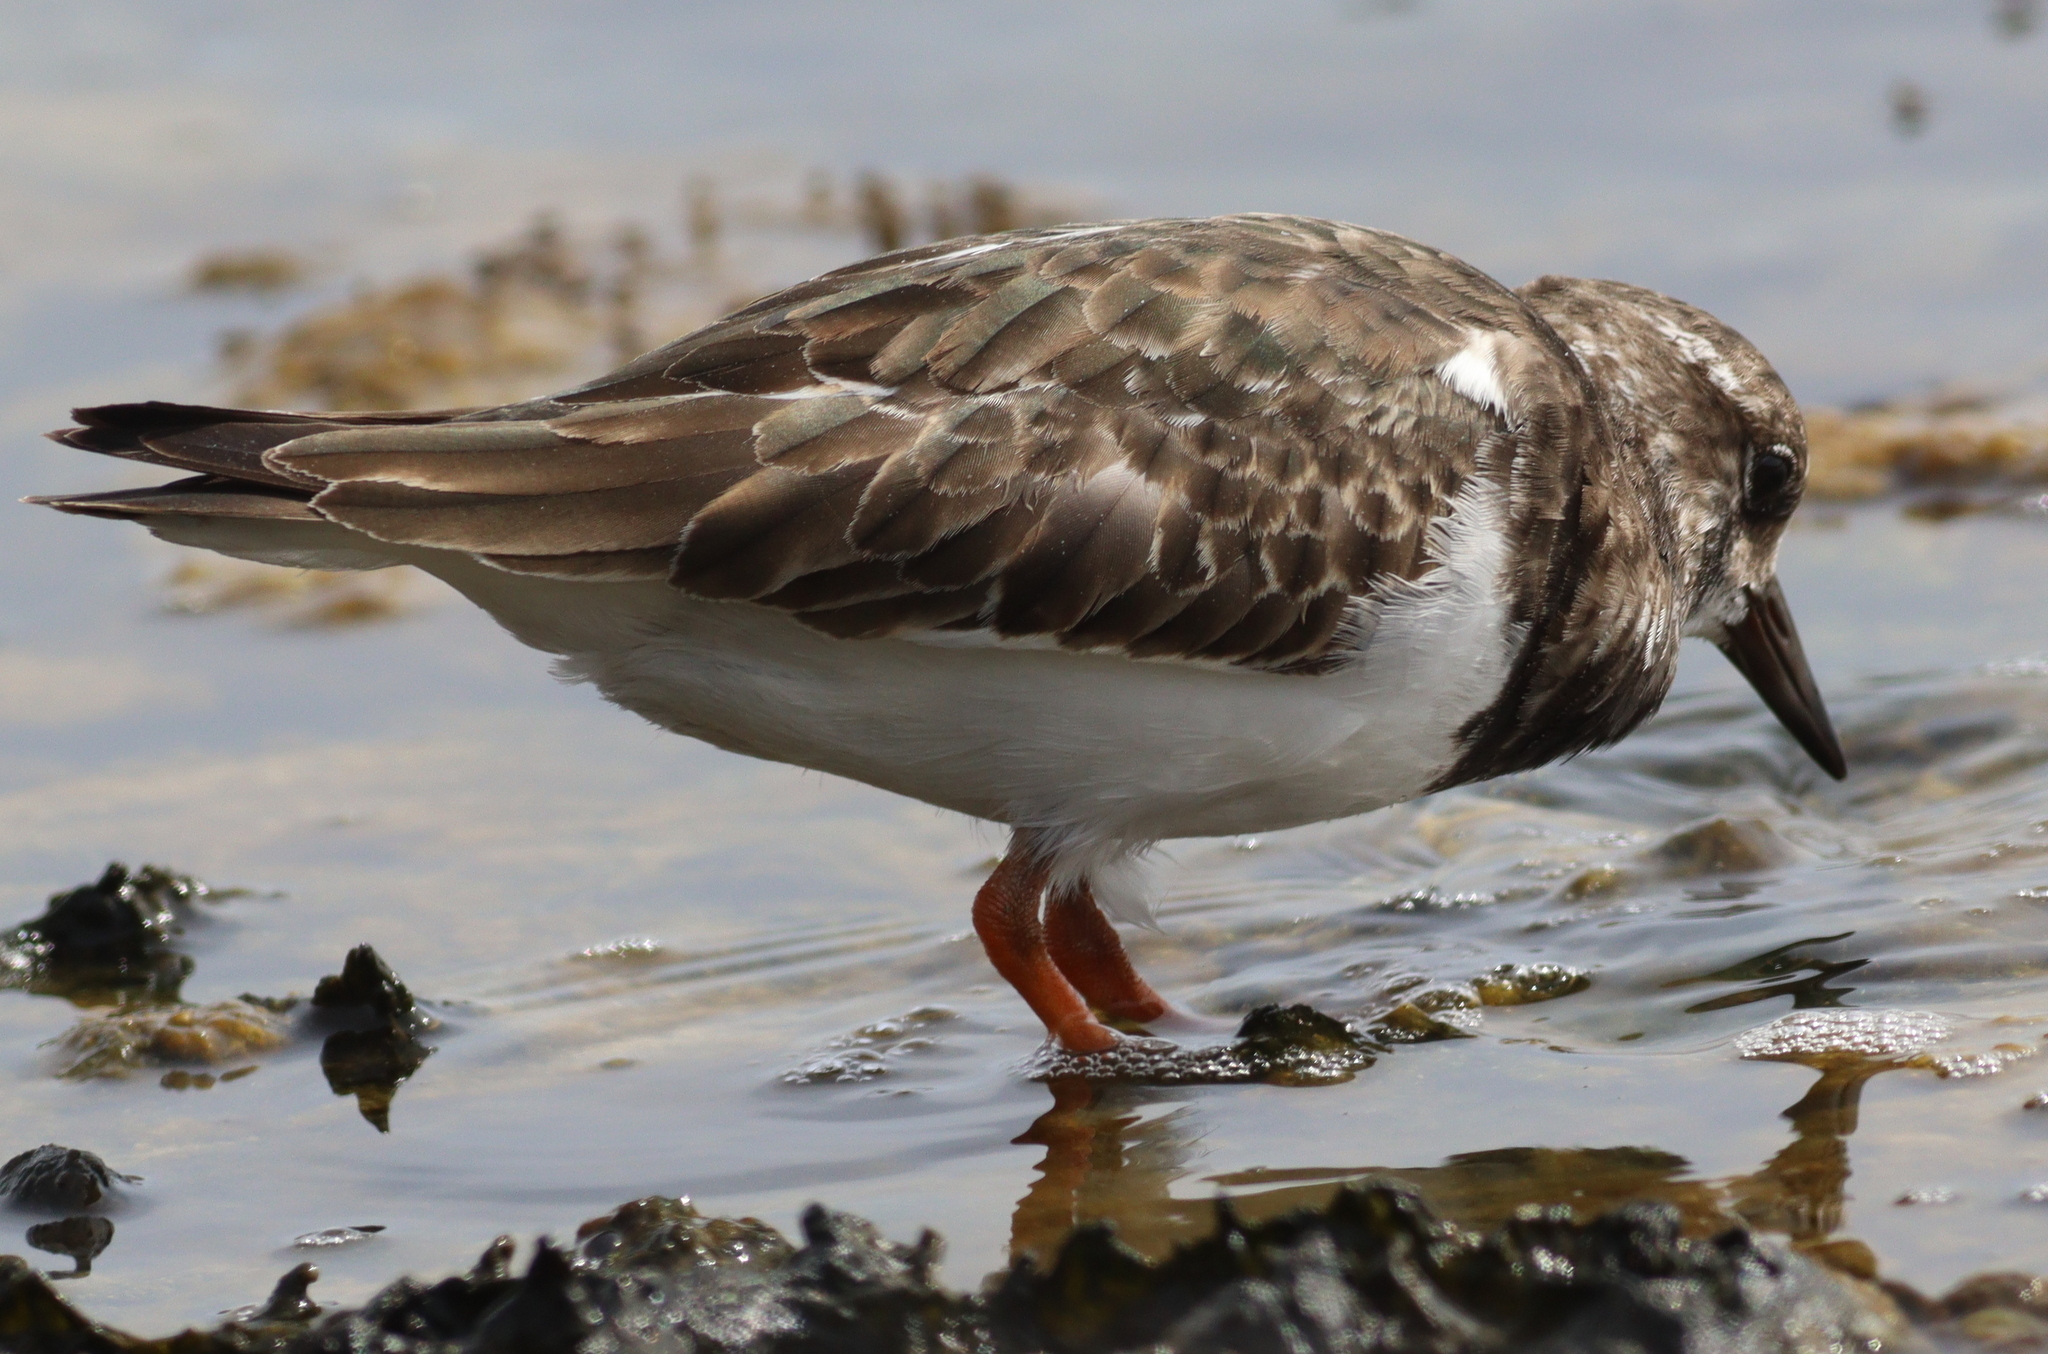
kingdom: Animalia
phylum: Chordata
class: Aves
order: Charadriiformes
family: Scolopacidae
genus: Arenaria
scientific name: Arenaria interpres
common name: Ruddy turnstone
